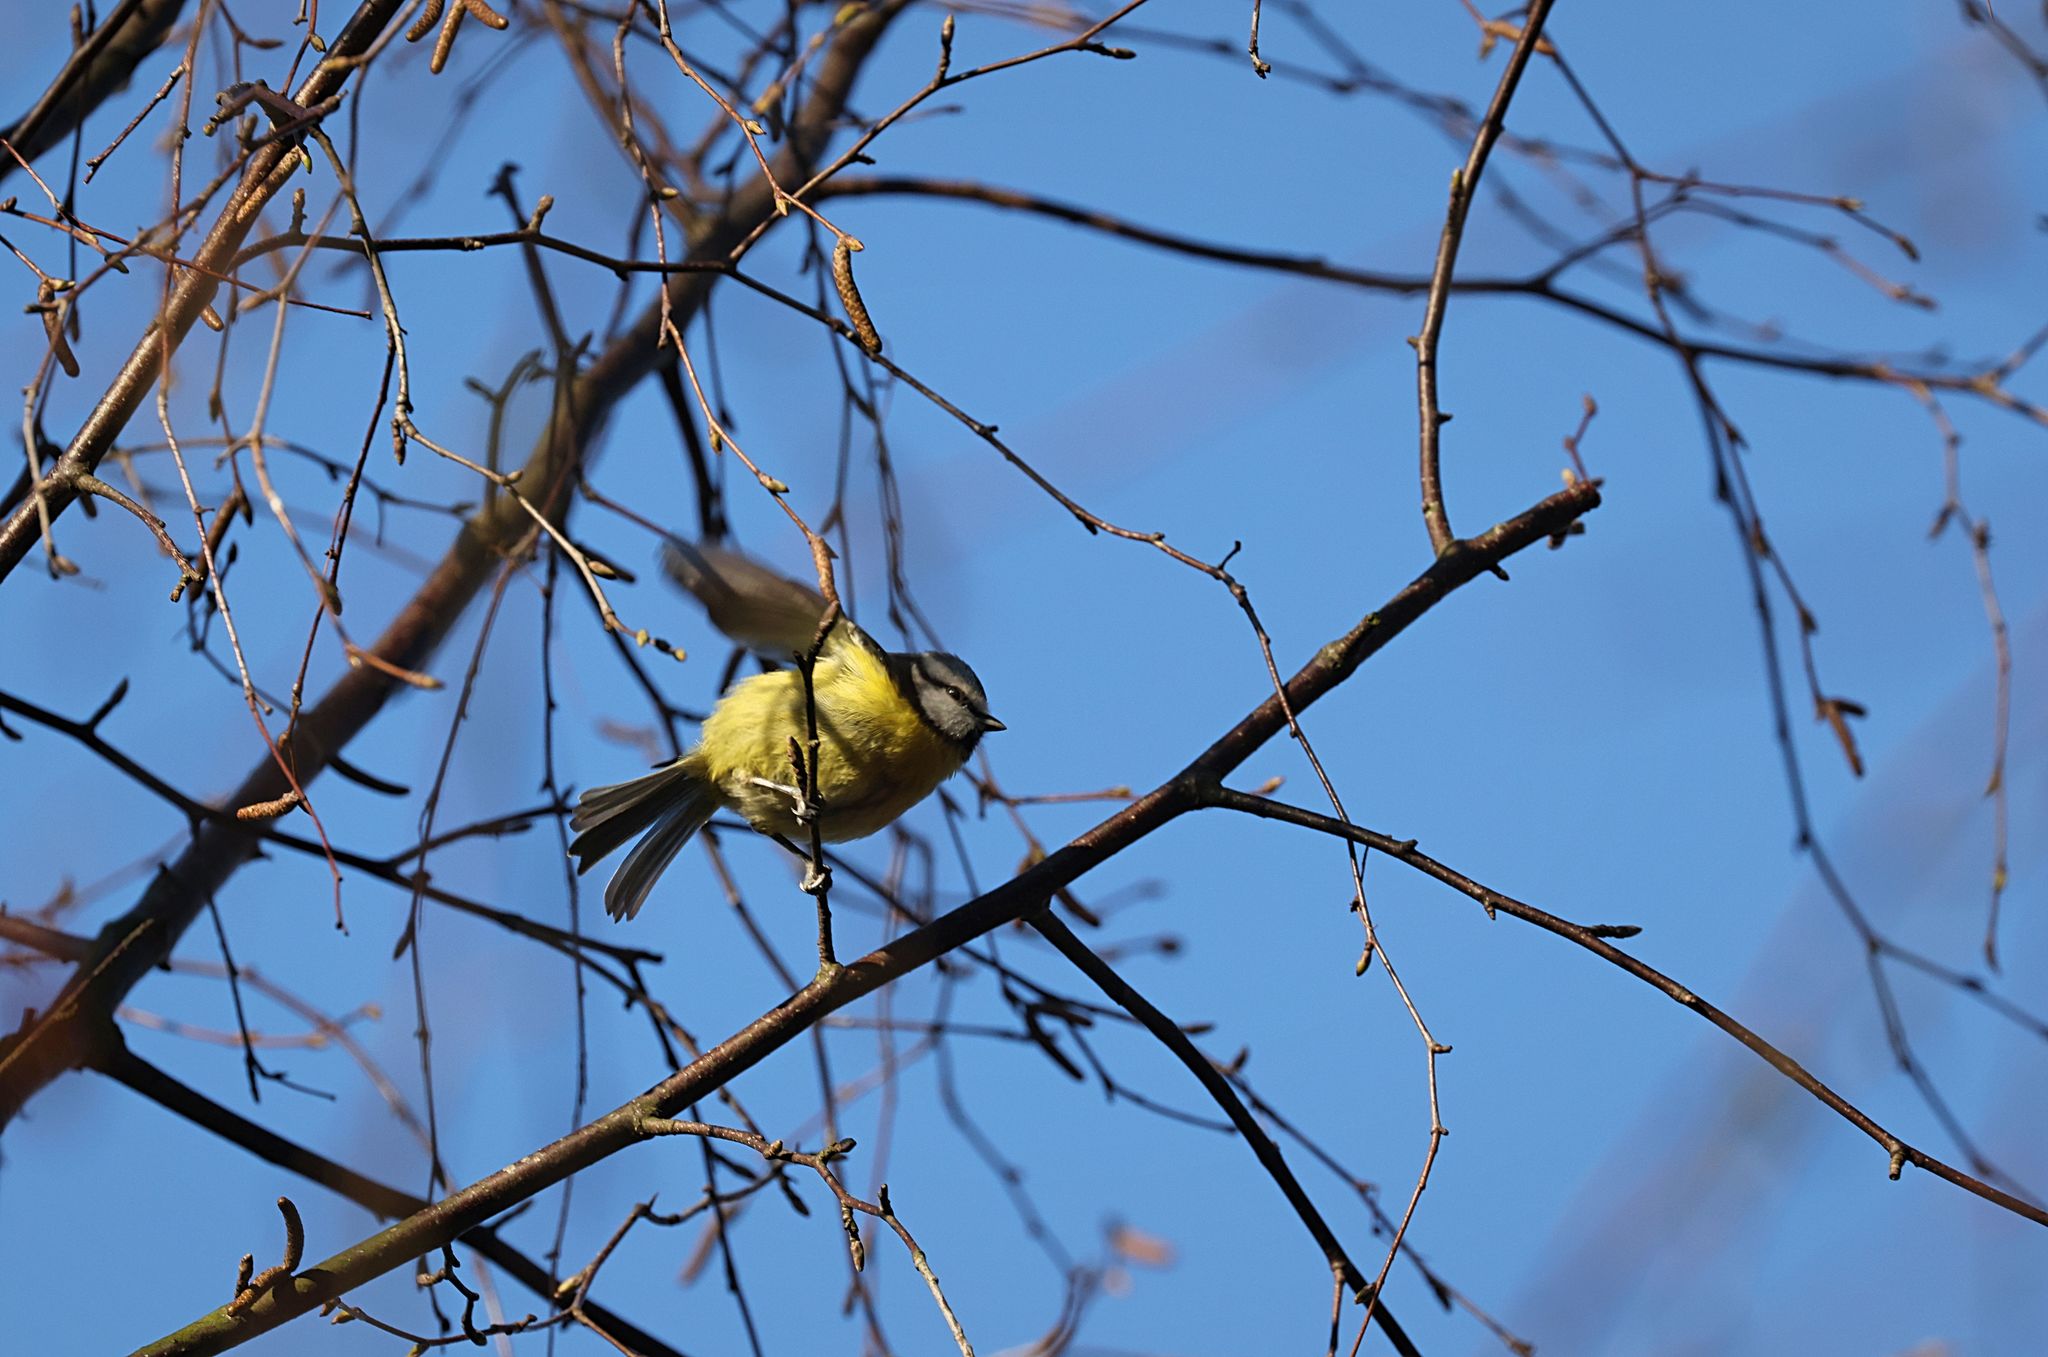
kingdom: Animalia
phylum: Chordata
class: Aves
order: Passeriformes
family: Paridae
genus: Cyanistes
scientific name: Cyanistes caeruleus
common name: Eurasian blue tit
